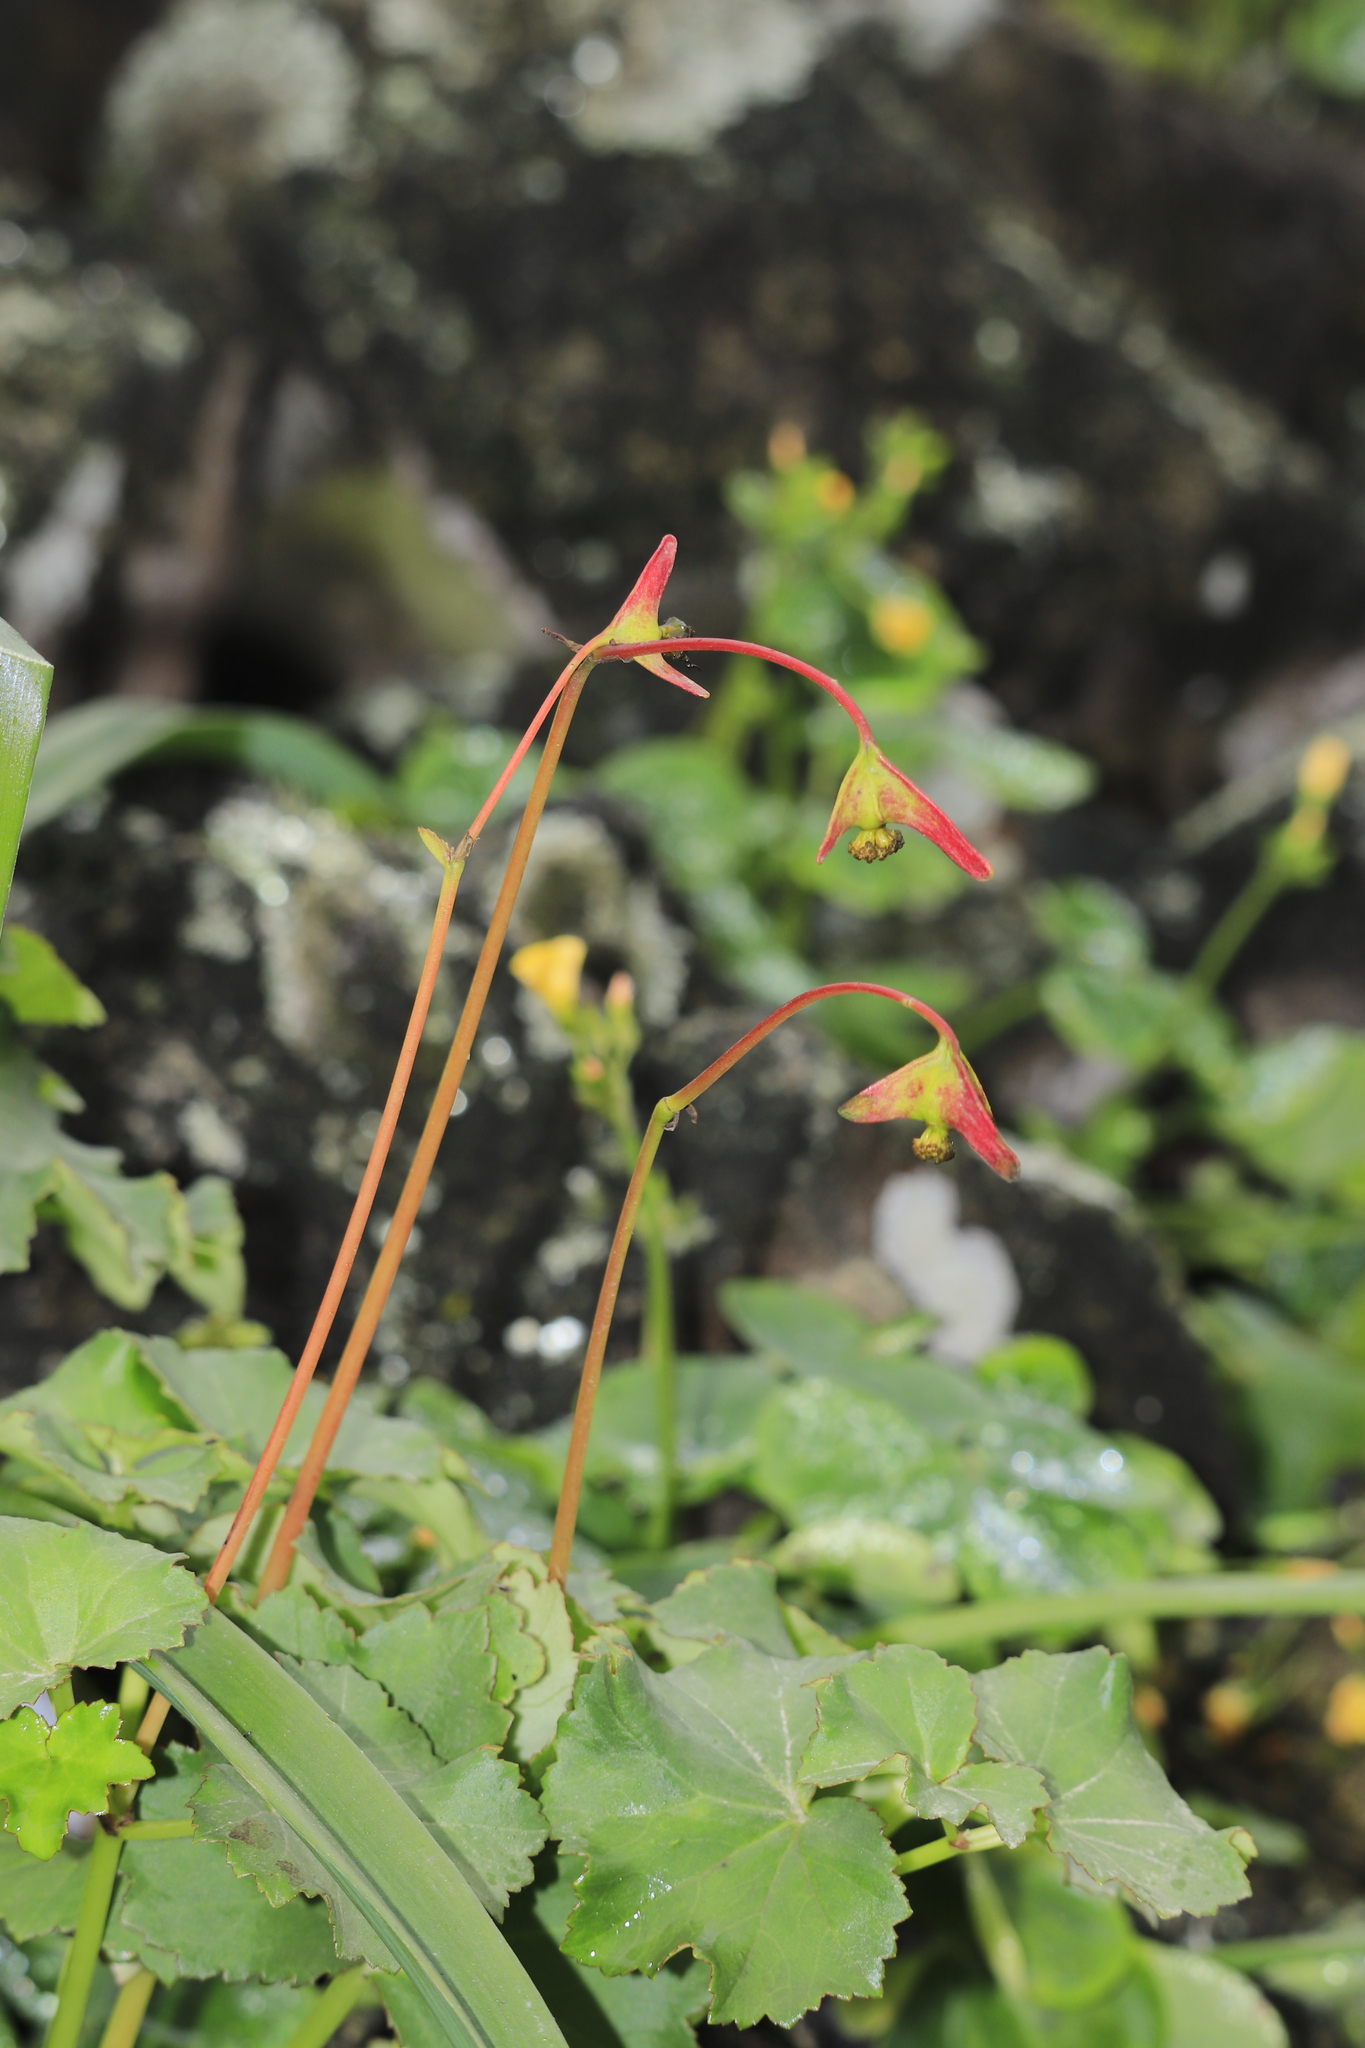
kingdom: Plantae
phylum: Tracheophyta
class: Magnoliopsida
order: Cucurbitales
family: Begoniaceae
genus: Begonia
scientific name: Begonia geraniifolia
